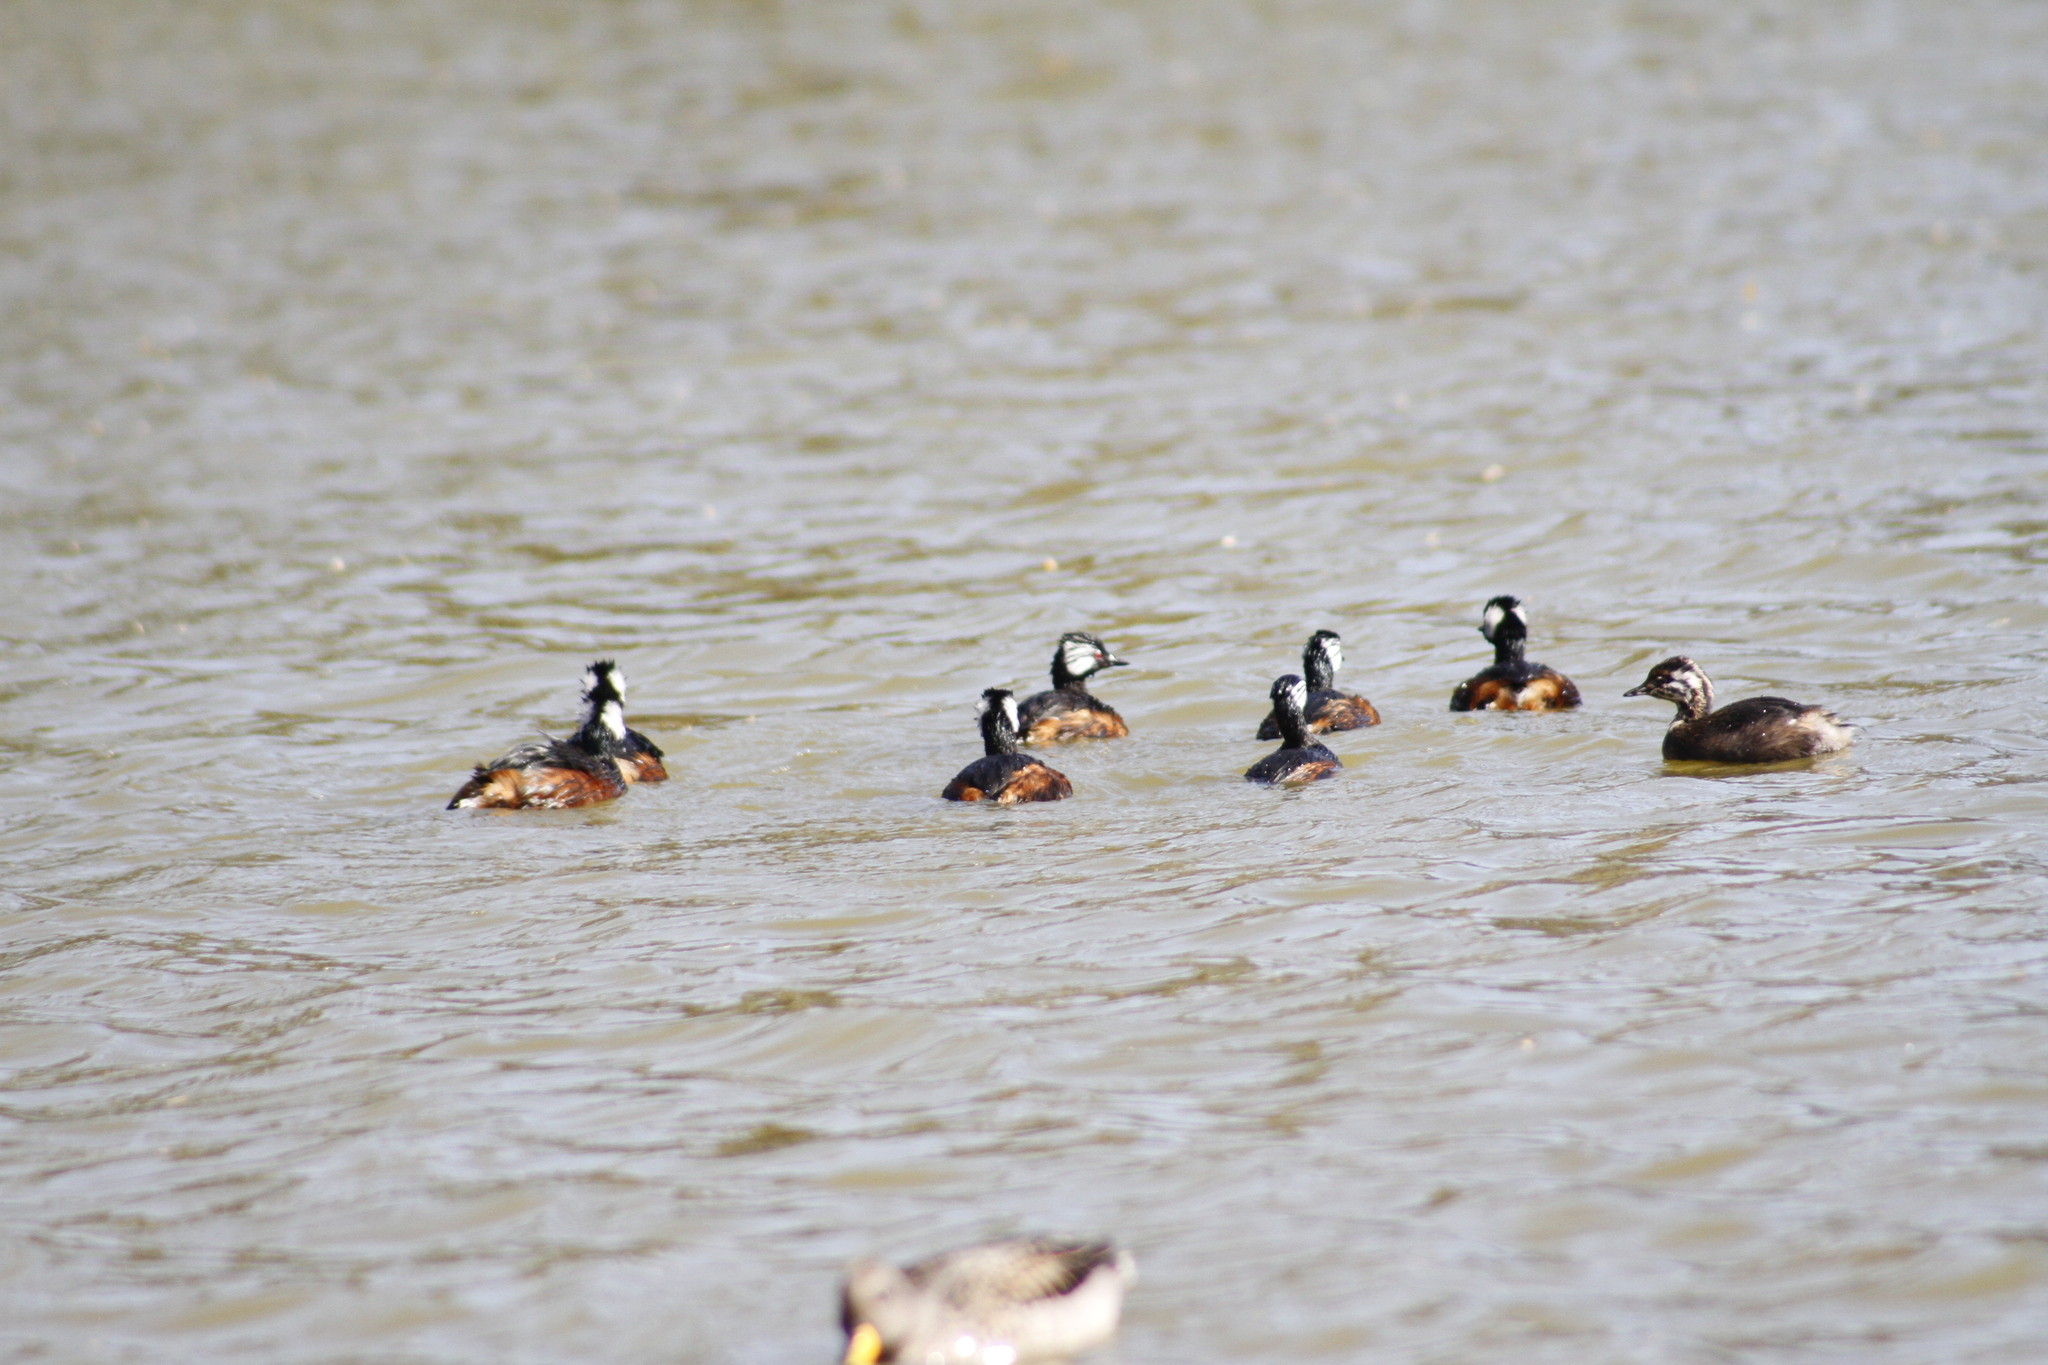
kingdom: Animalia
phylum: Chordata
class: Aves
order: Podicipediformes
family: Podicipedidae
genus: Rollandia
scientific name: Rollandia rolland
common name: White-tufted grebe
